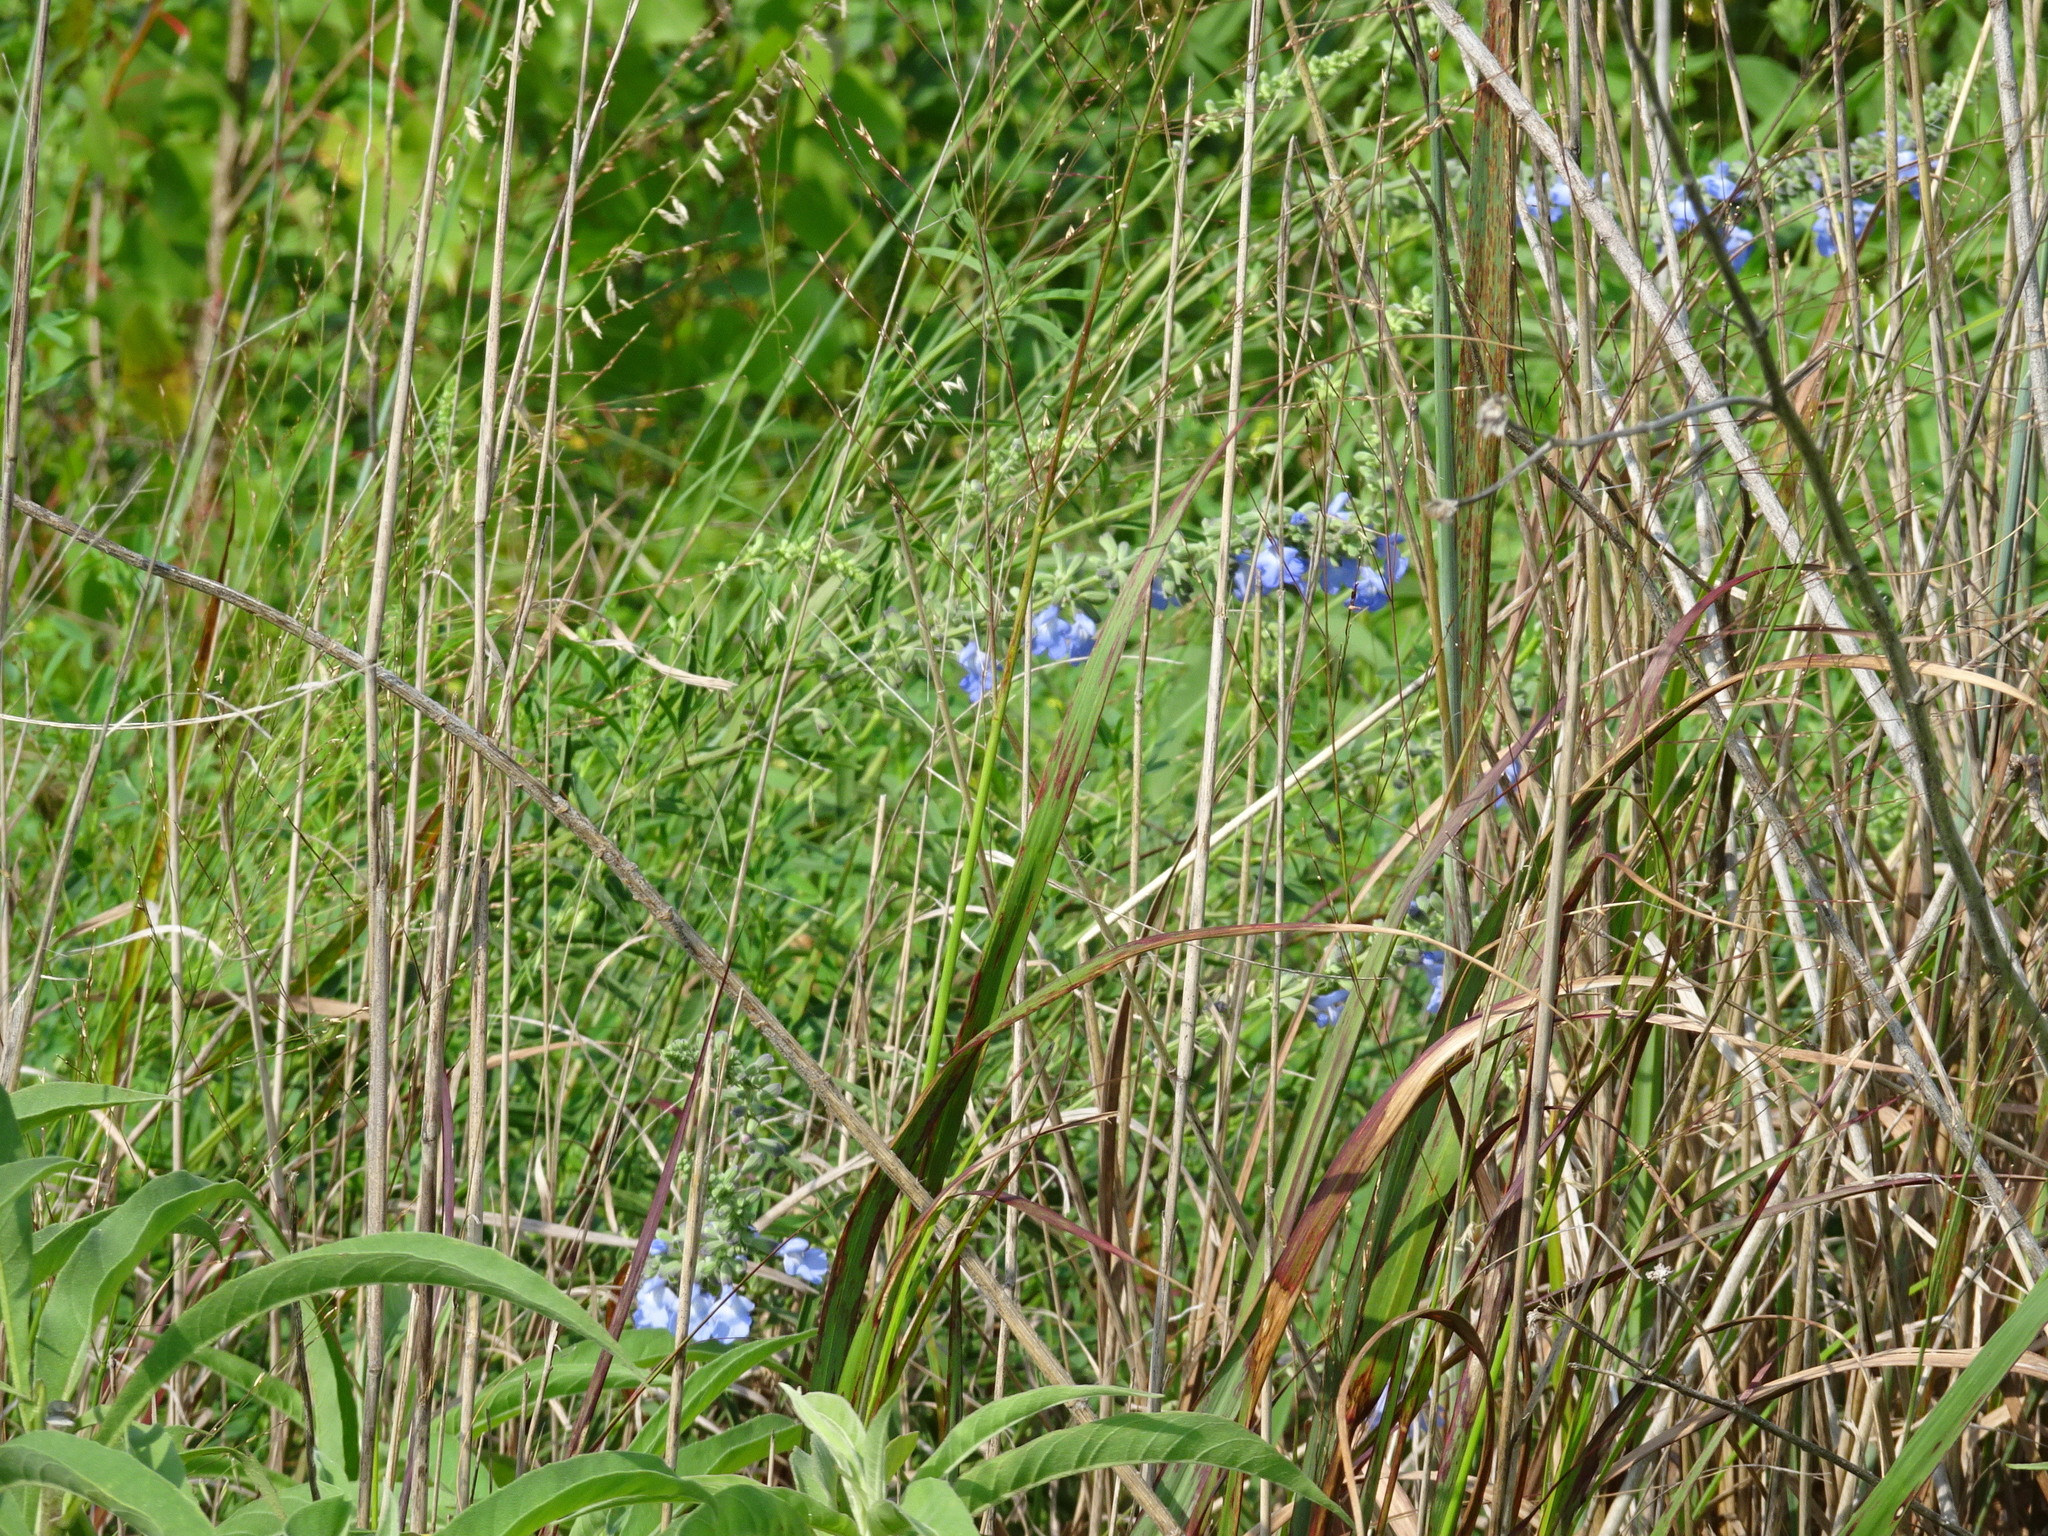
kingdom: Plantae
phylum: Tracheophyta
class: Magnoliopsida
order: Lamiales
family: Lamiaceae
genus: Salvia
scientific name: Salvia azurea
